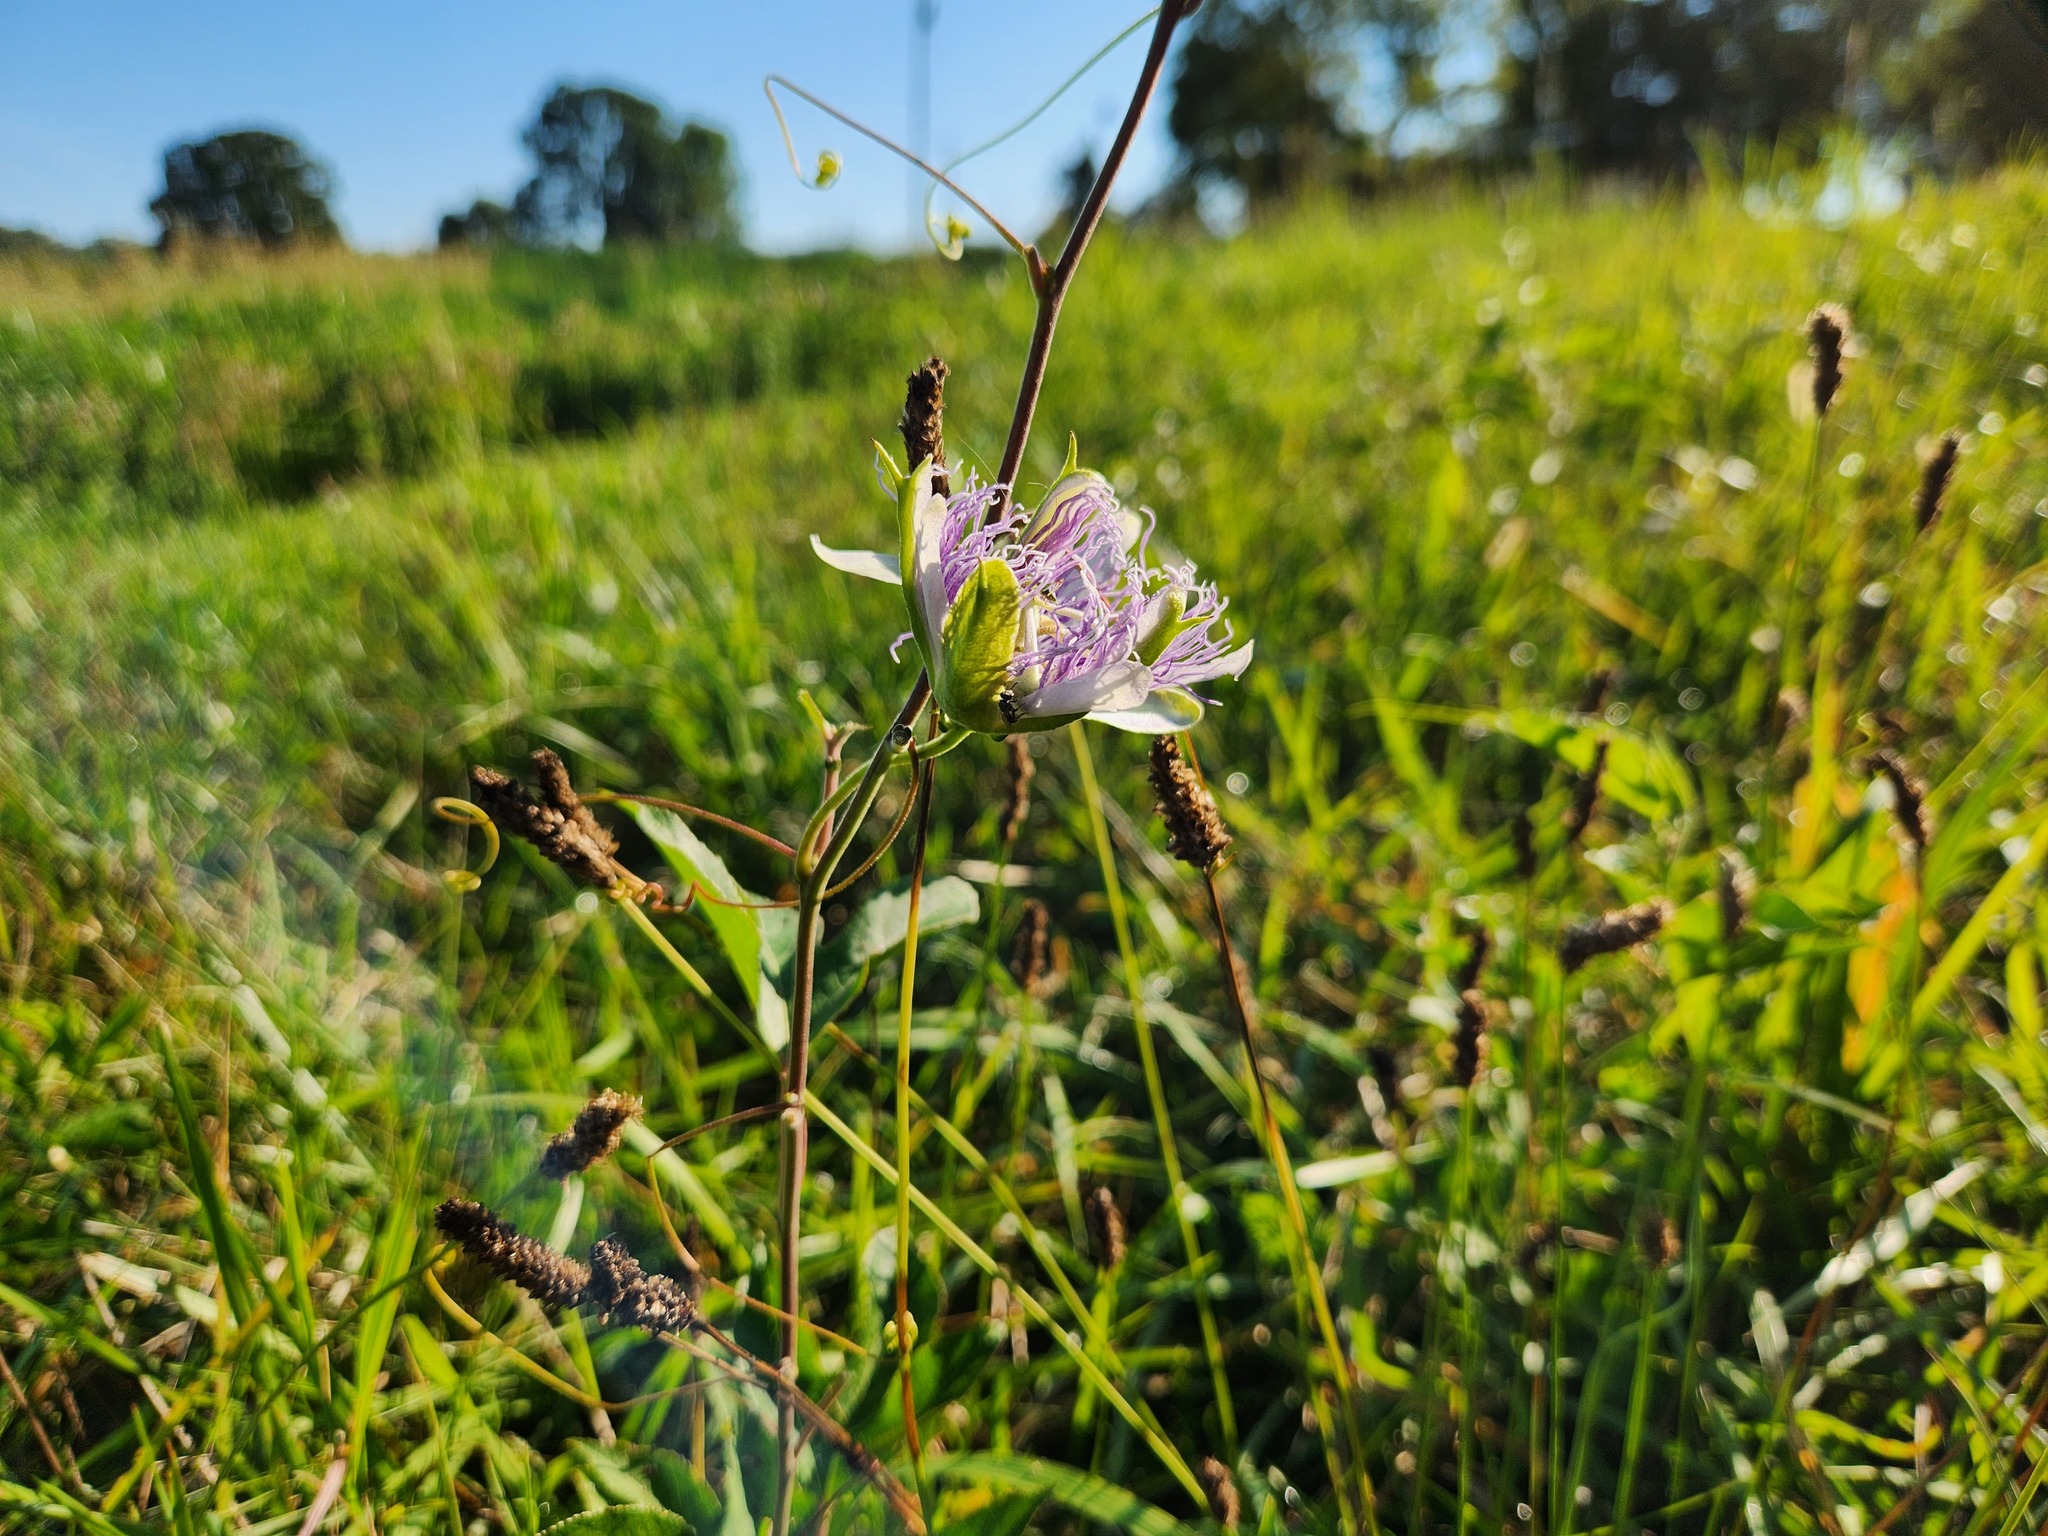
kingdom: Plantae
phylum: Tracheophyta
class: Magnoliopsida
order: Malpighiales
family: Passifloraceae
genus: Passiflora
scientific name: Passiflora incarnata
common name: Apricot-vine
